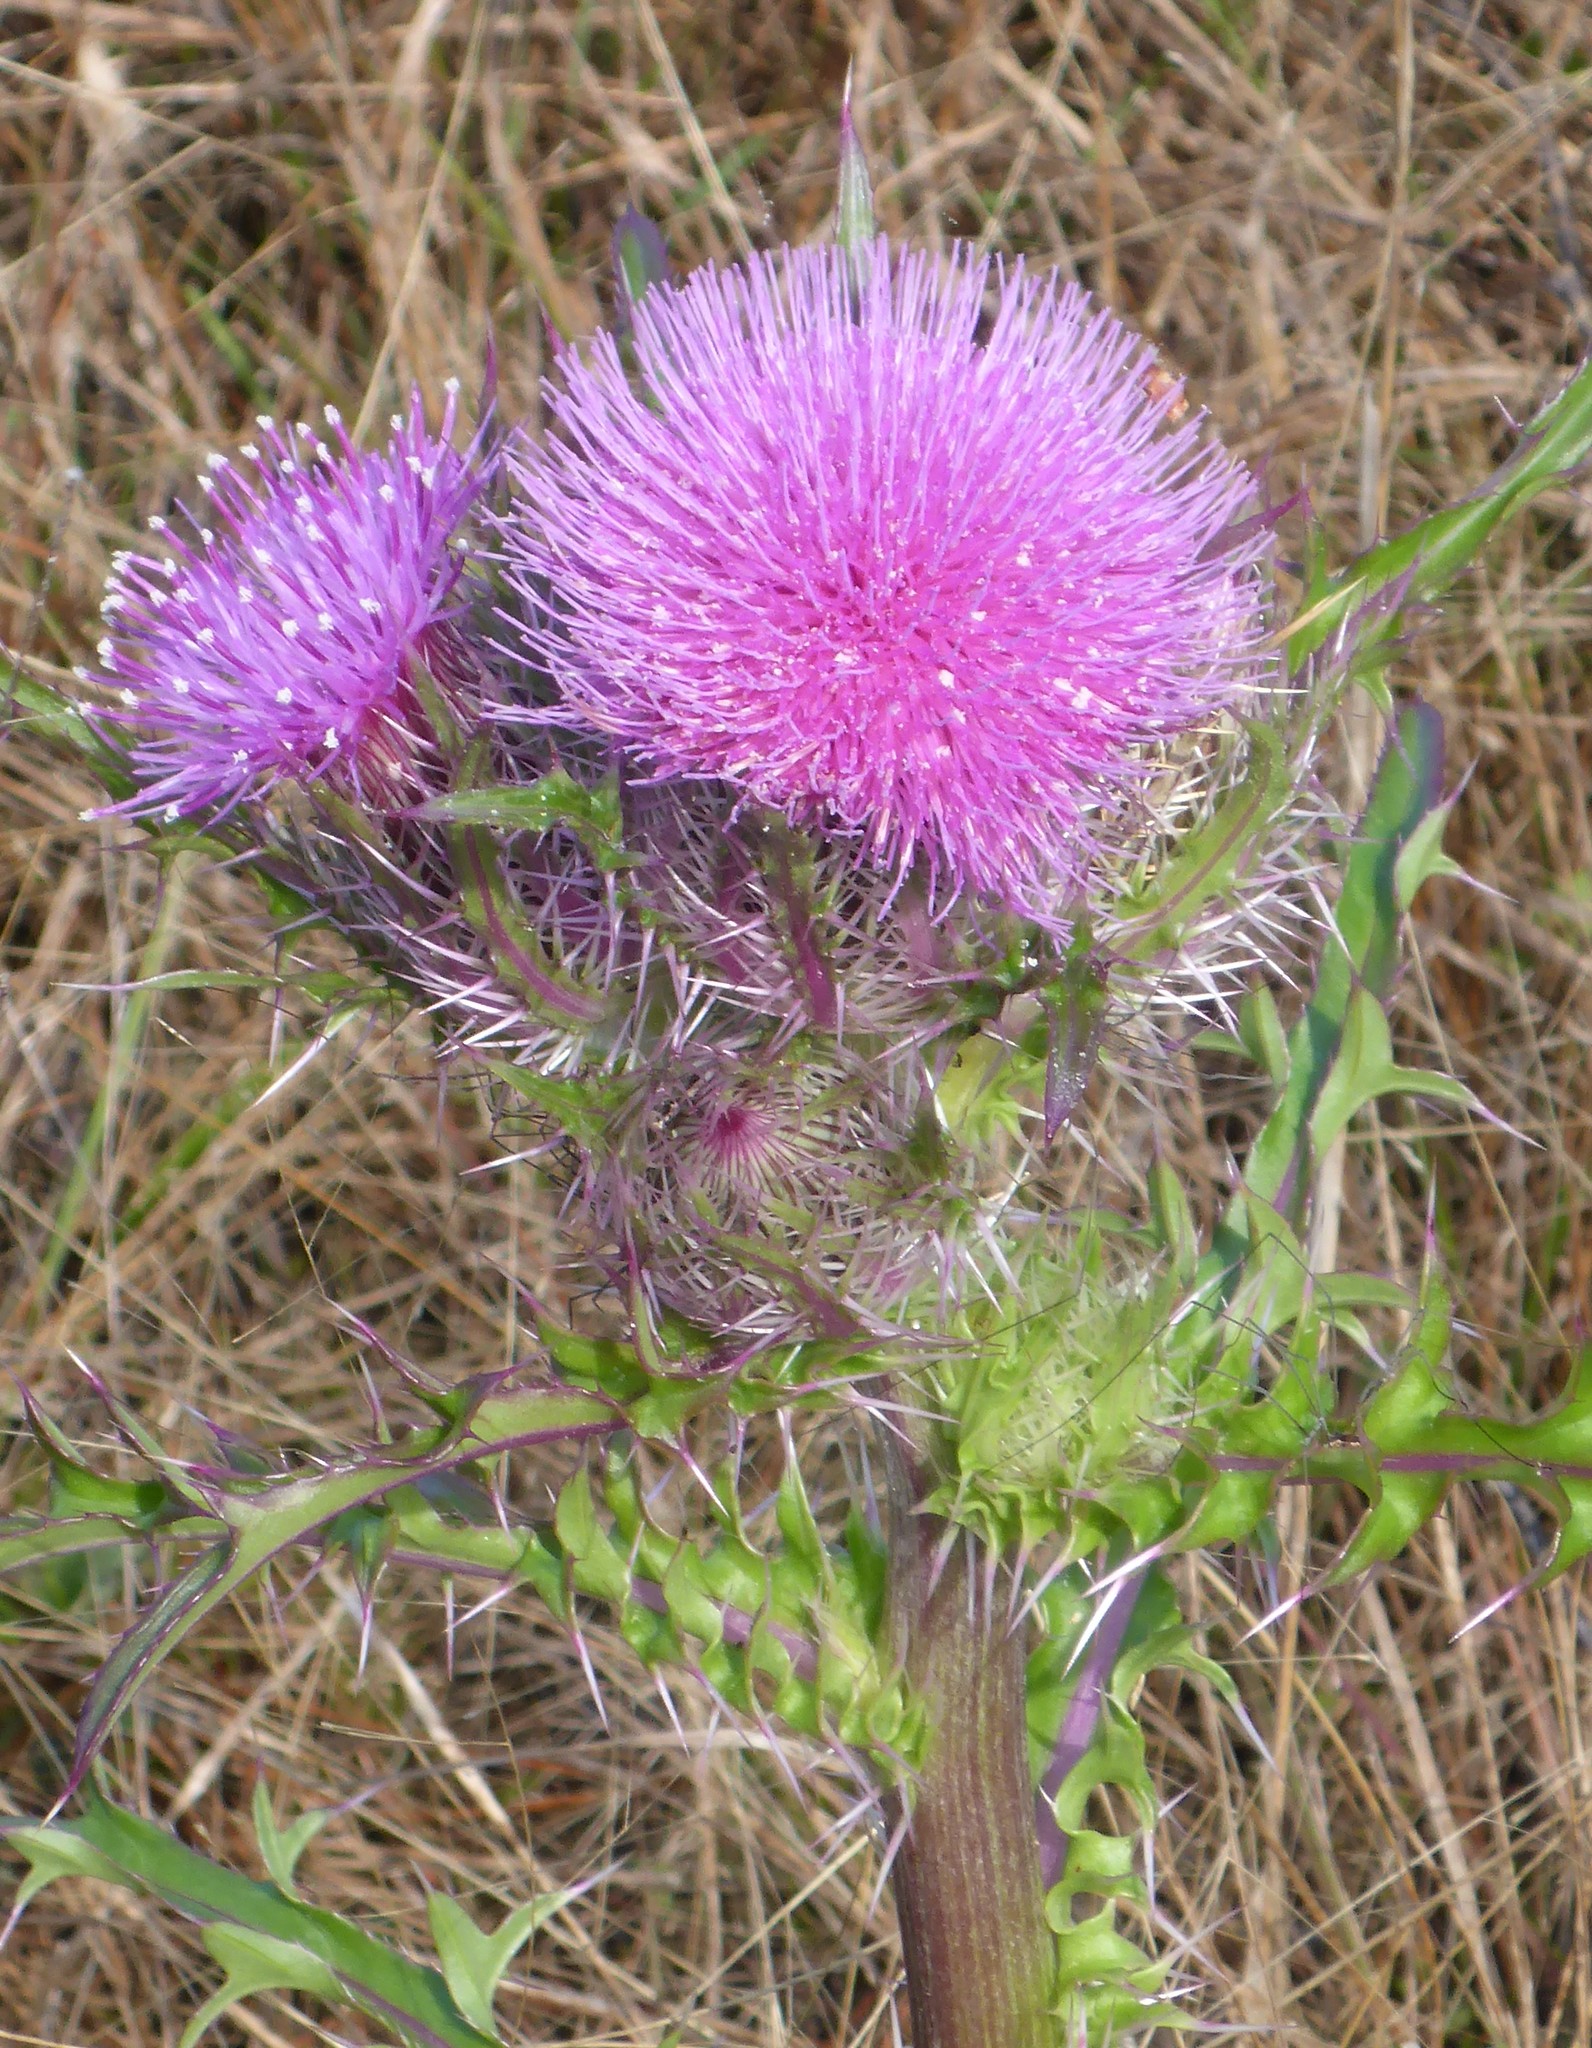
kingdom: Plantae
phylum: Tracheophyta
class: Magnoliopsida
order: Asterales
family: Asteraceae
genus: Cirsium
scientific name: Cirsium horridulum
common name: Bristly thistle
